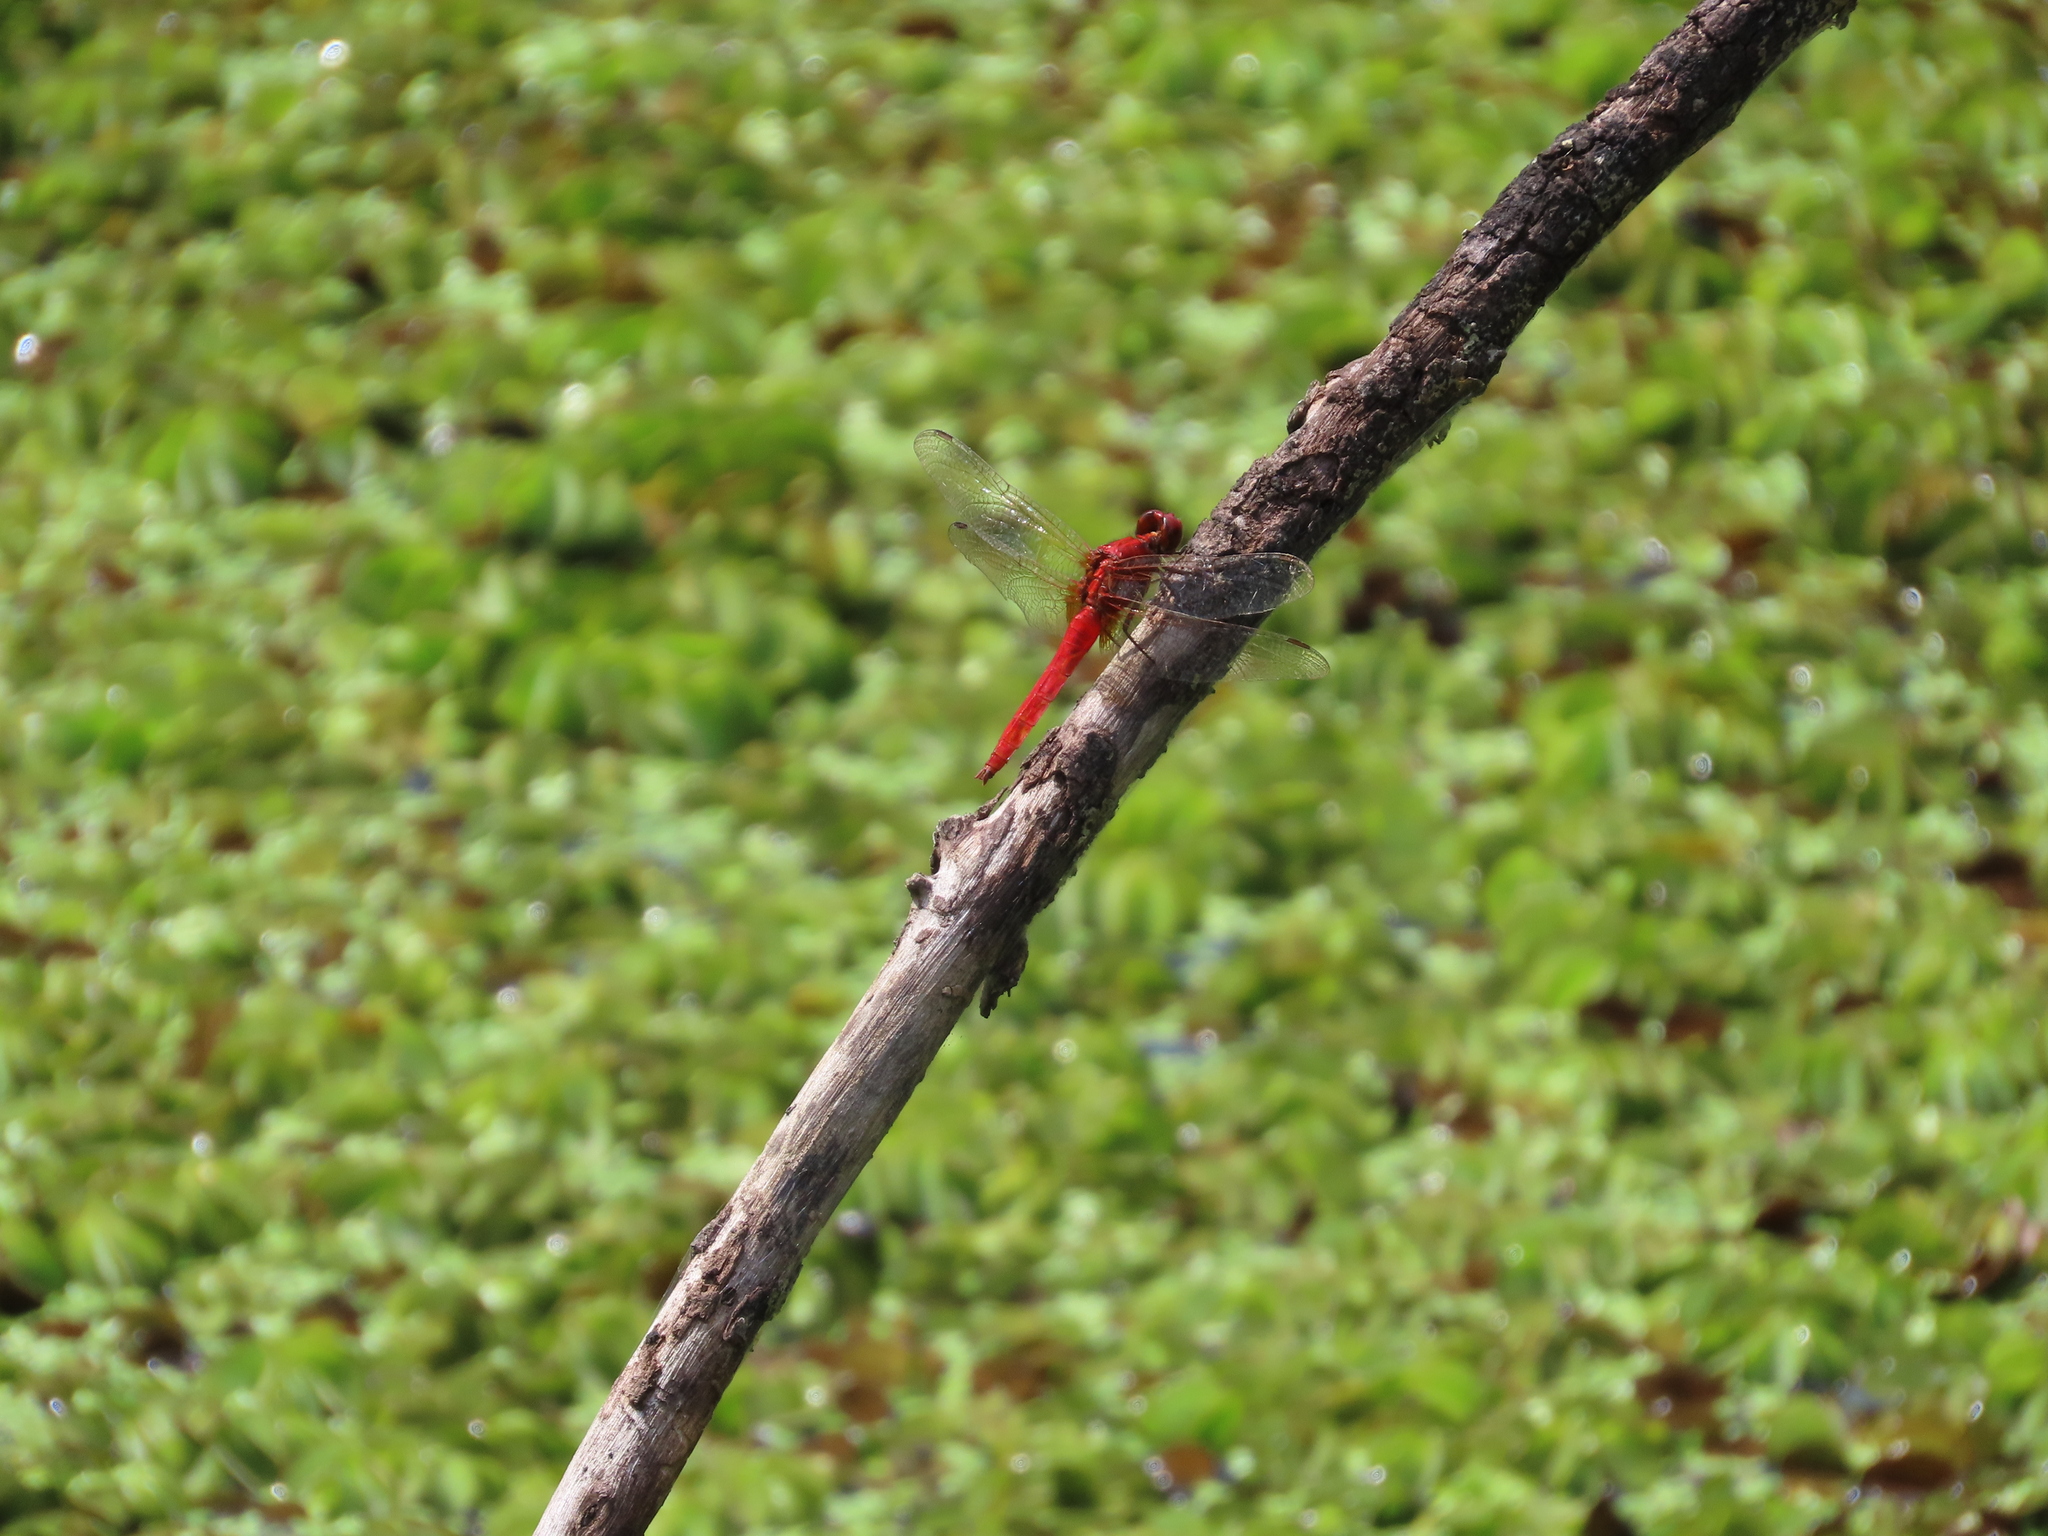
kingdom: Animalia
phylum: Arthropoda
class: Insecta
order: Odonata
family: Libellulidae
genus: Rhodothemis
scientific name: Rhodothemis rufa
